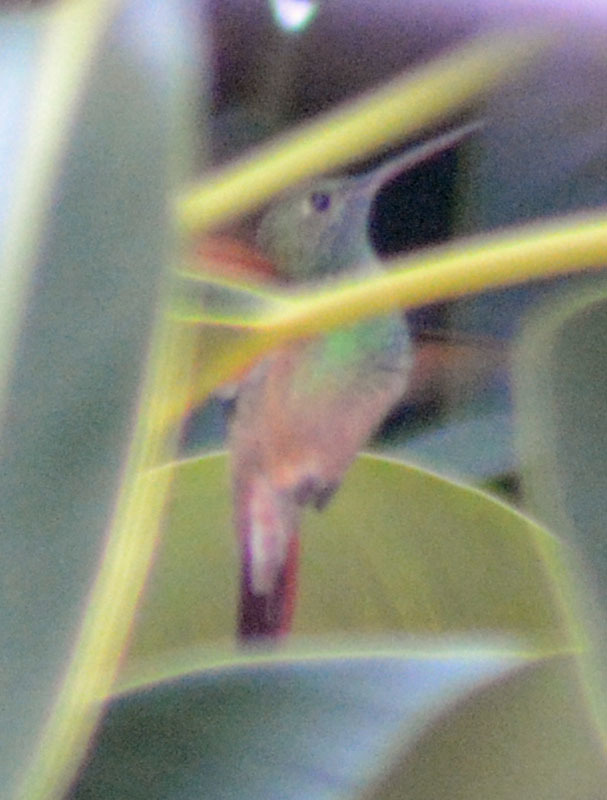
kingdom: Animalia
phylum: Chordata
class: Aves
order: Apodiformes
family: Trochilidae
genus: Saucerottia
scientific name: Saucerottia beryllina
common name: Berylline hummingbird
